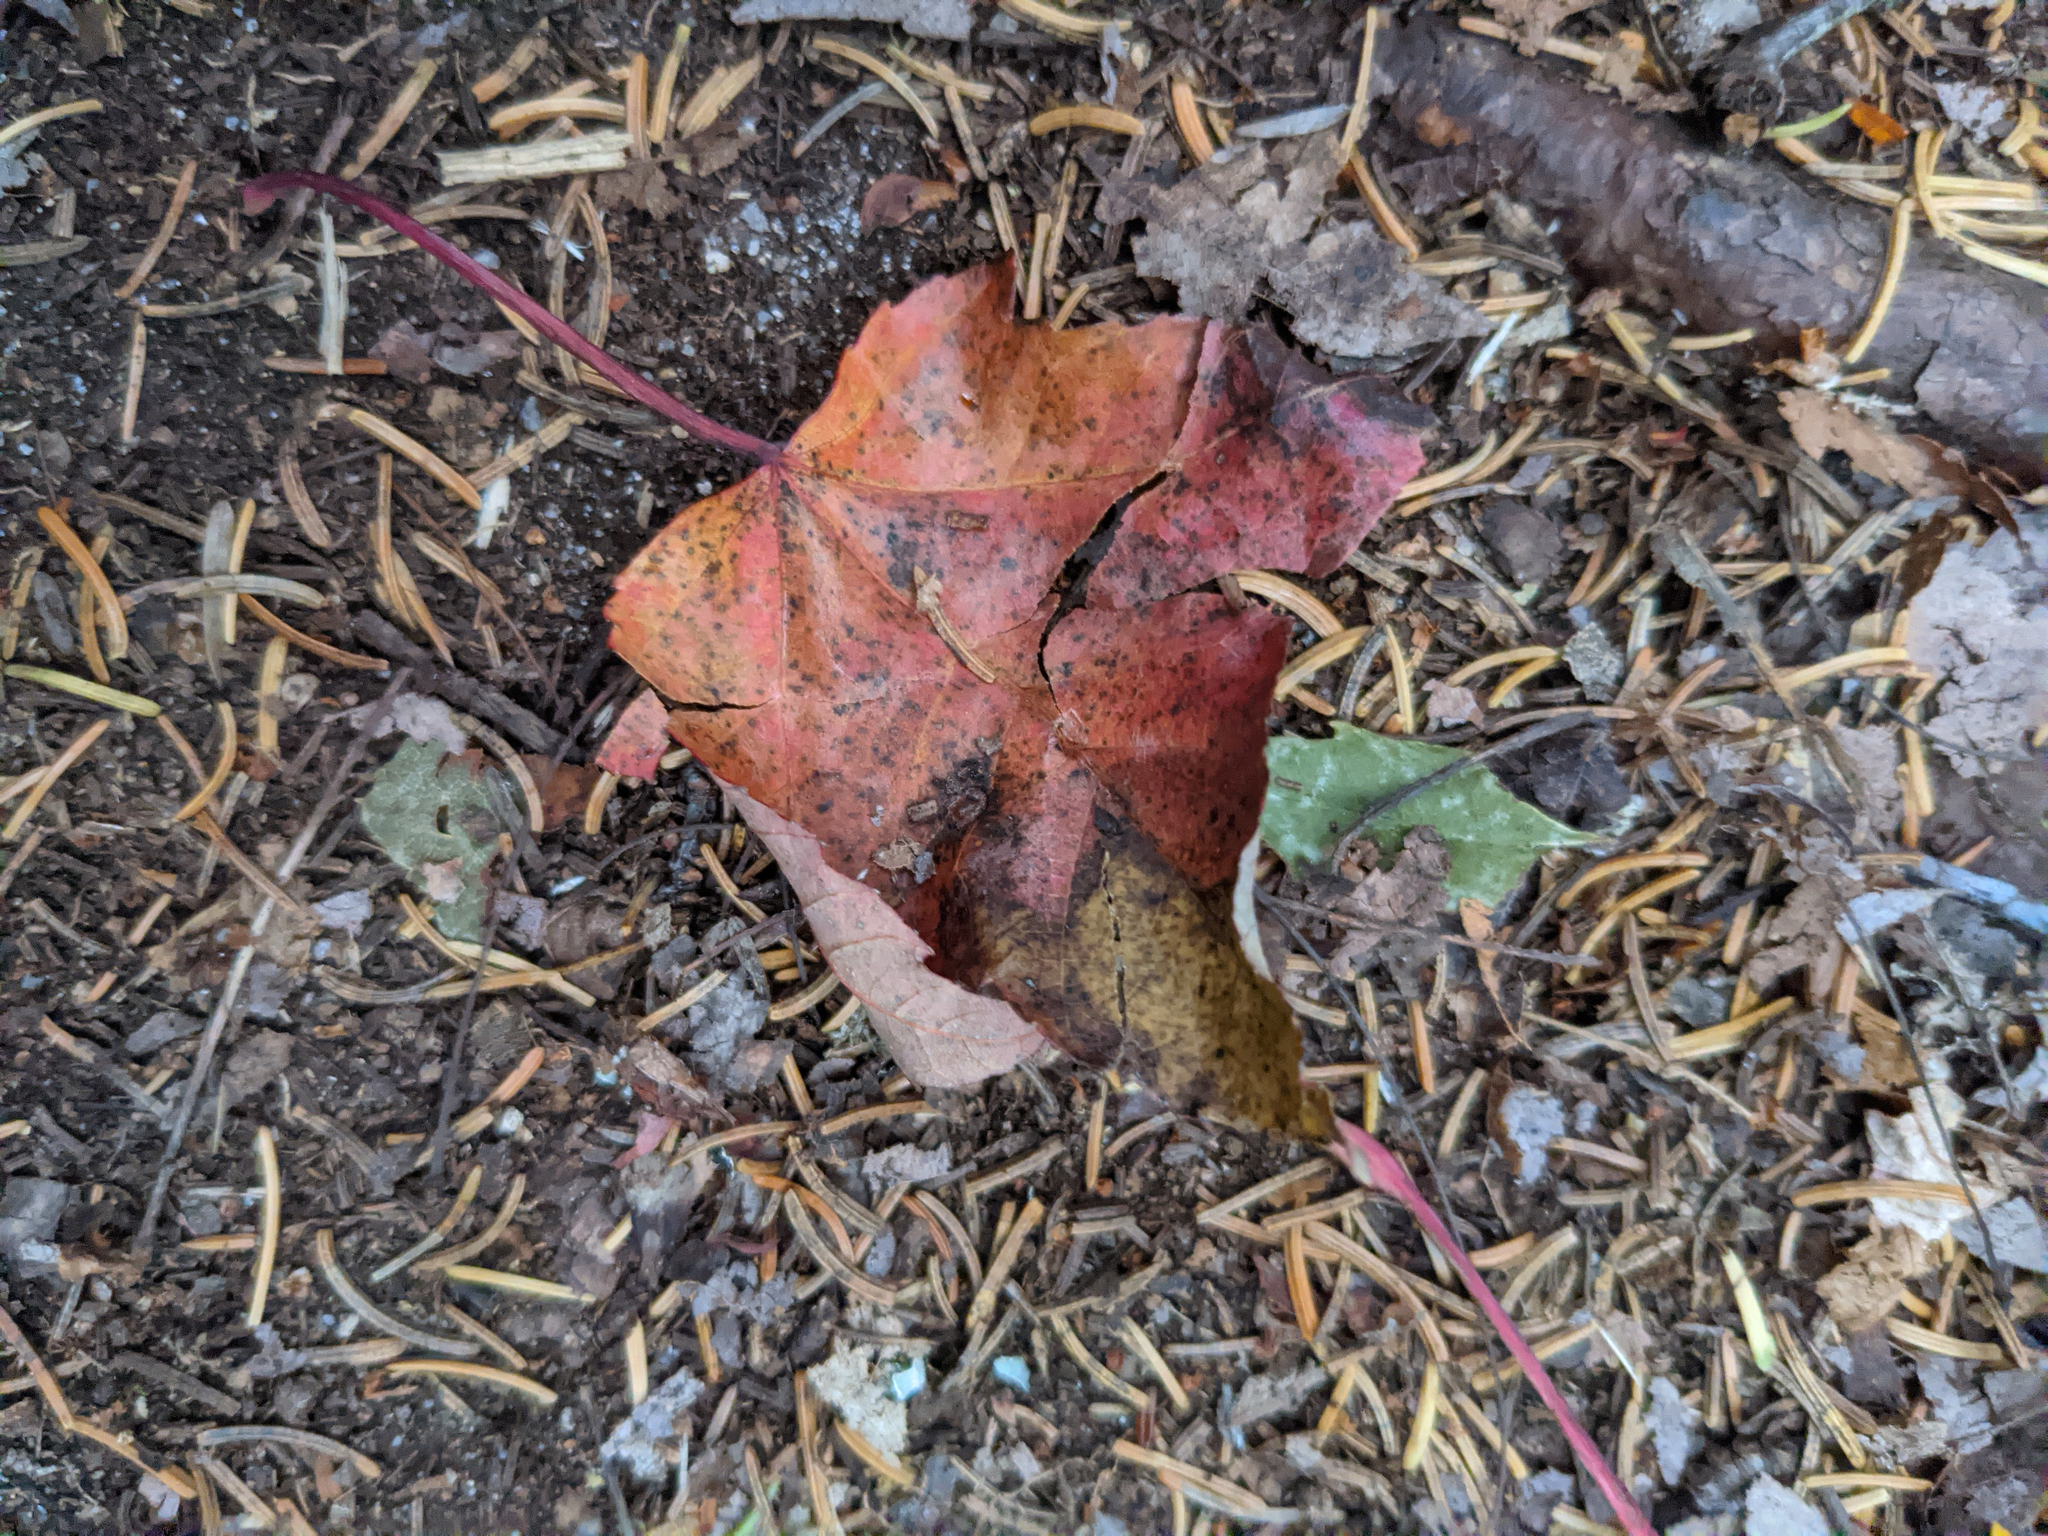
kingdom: Plantae
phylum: Tracheophyta
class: Magnoliopsida
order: Sapindales
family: Sapindaceae
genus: Acer
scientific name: Acer rubrum
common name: Red maple
